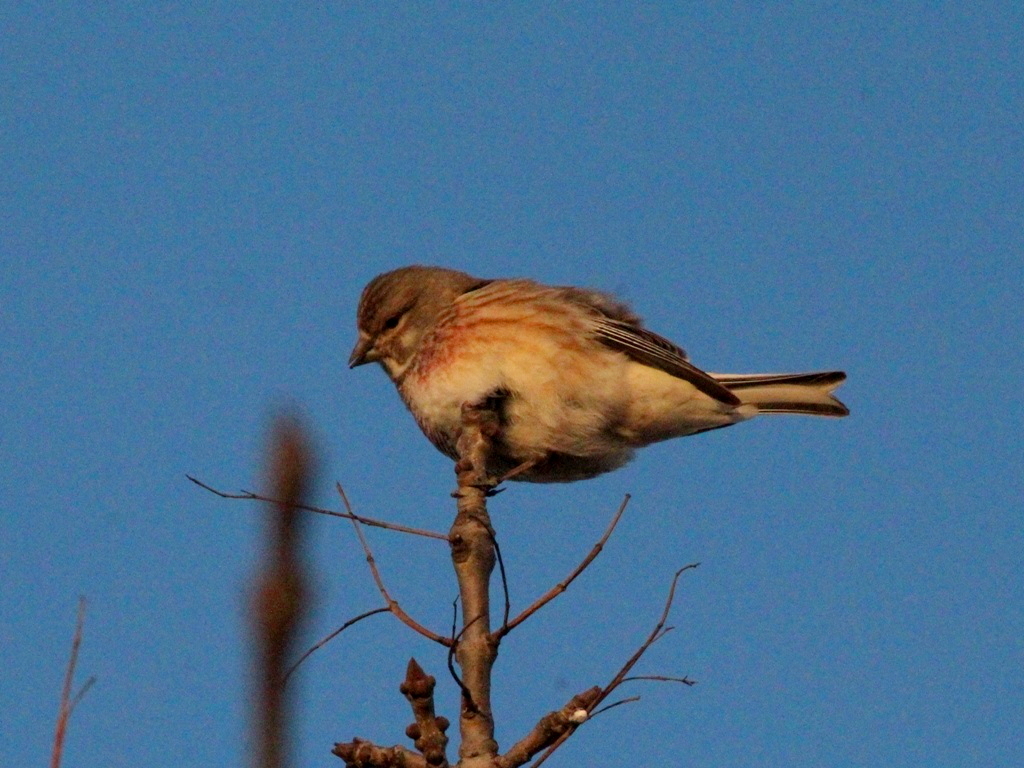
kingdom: Animalia
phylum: Chordata
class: Aves
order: Passeriformes
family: Fringillidae
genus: Linaria
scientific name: Linaria cannabina
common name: Common linnet
